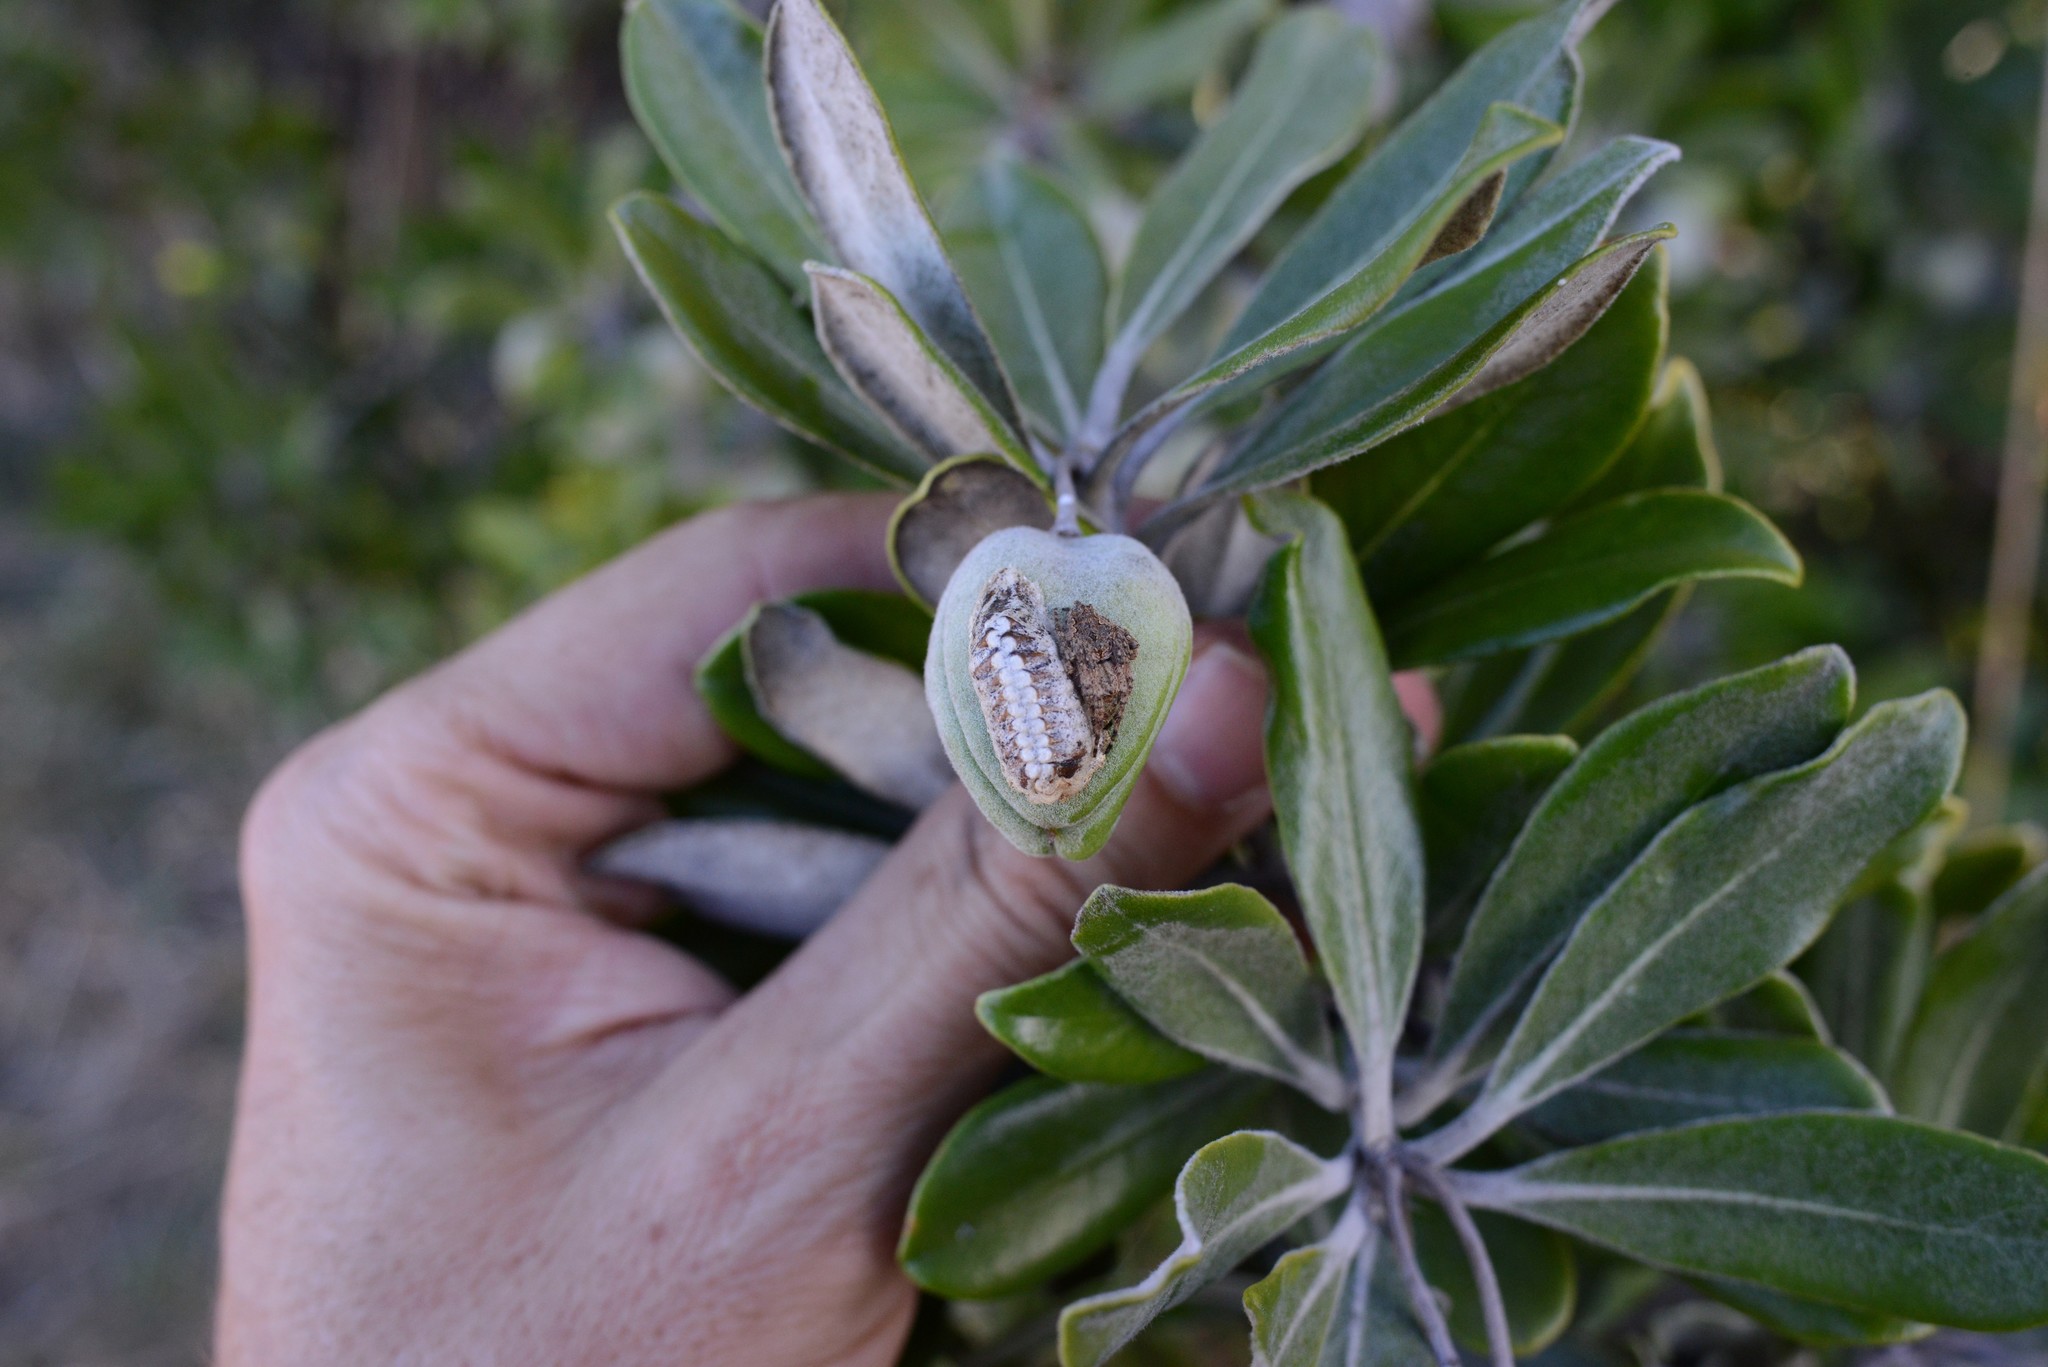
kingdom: Animalia
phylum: Arthropoda
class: Insecta
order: Mantodea
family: Mantidae
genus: Orthodera
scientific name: Orthodera novaezealandiae
